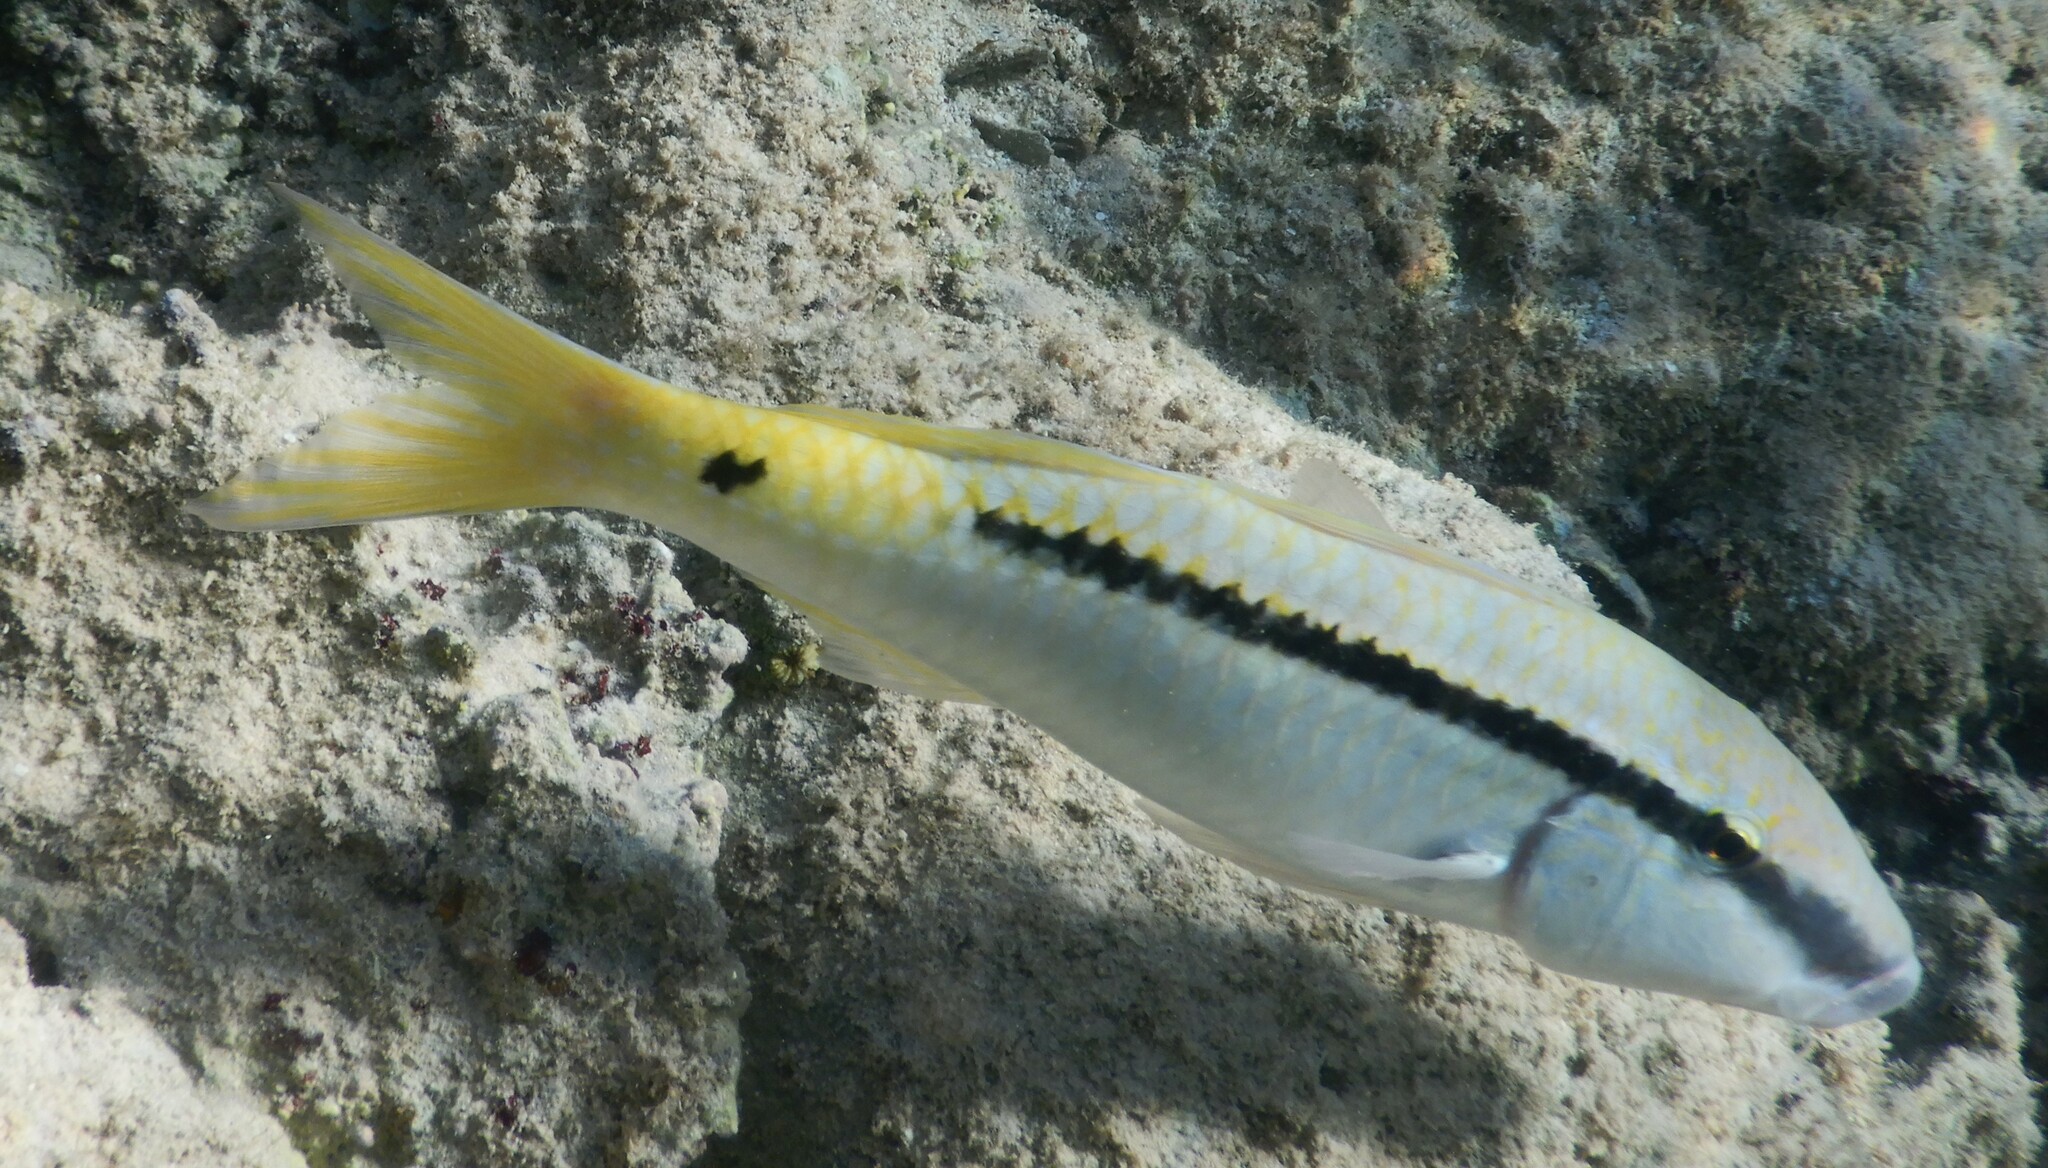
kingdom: Animalia
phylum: Chordata
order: Perciformes
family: Mullidae
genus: Parupeneus
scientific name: Parupeneus forsskali
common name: Red sea goatfish
